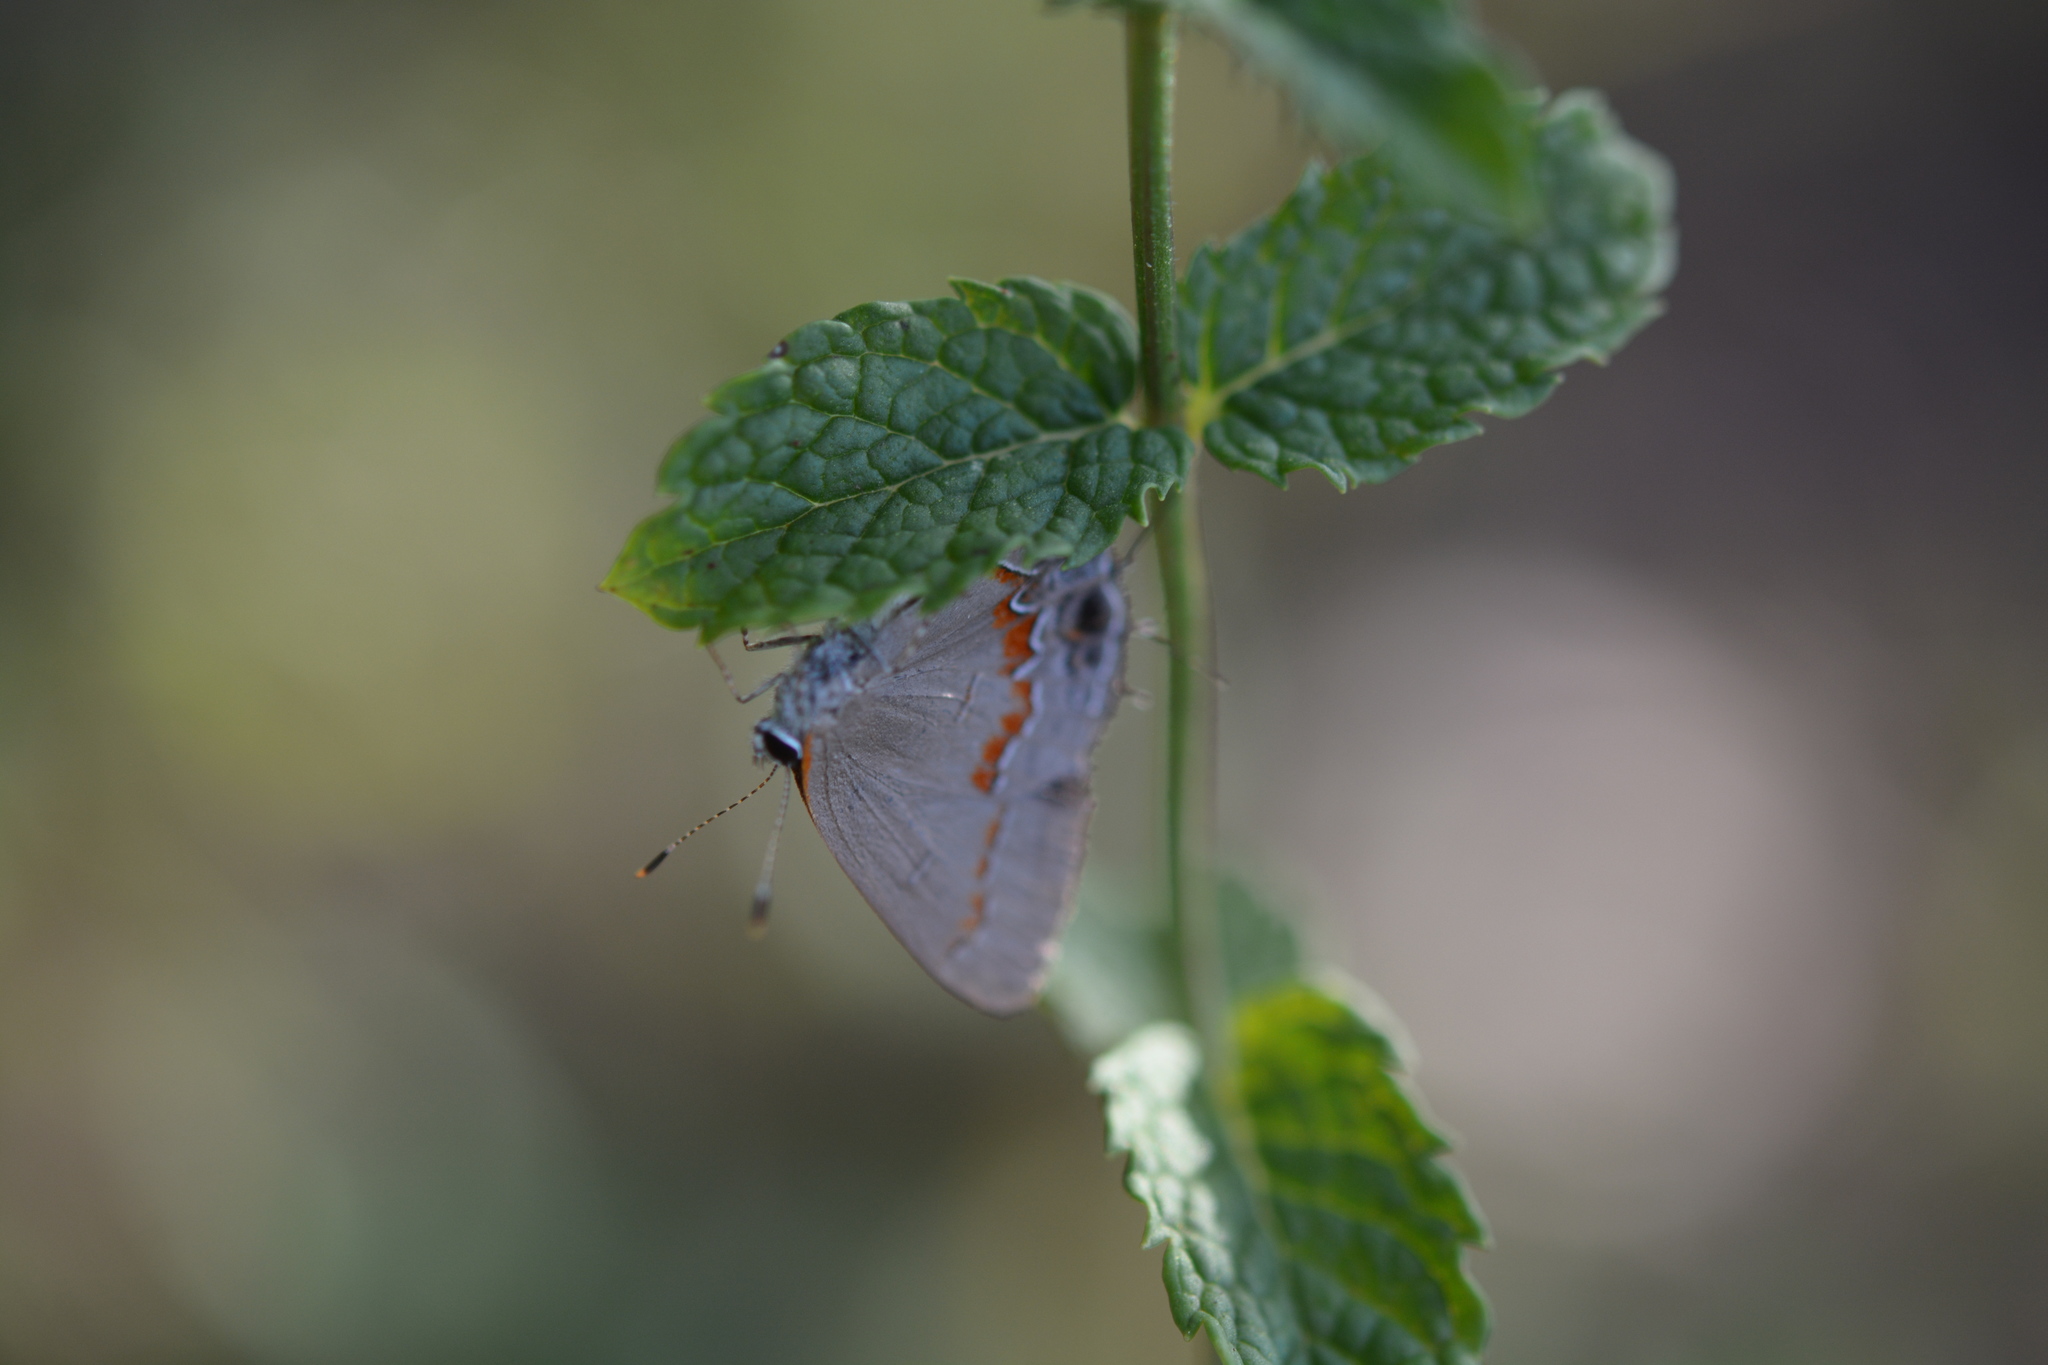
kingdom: Animalia
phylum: Arthropoda
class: Insecta
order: Lepidoptera
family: Lycaenidae
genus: Calycopis
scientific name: Calycopis cecrops
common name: Red-banded hairstreak
